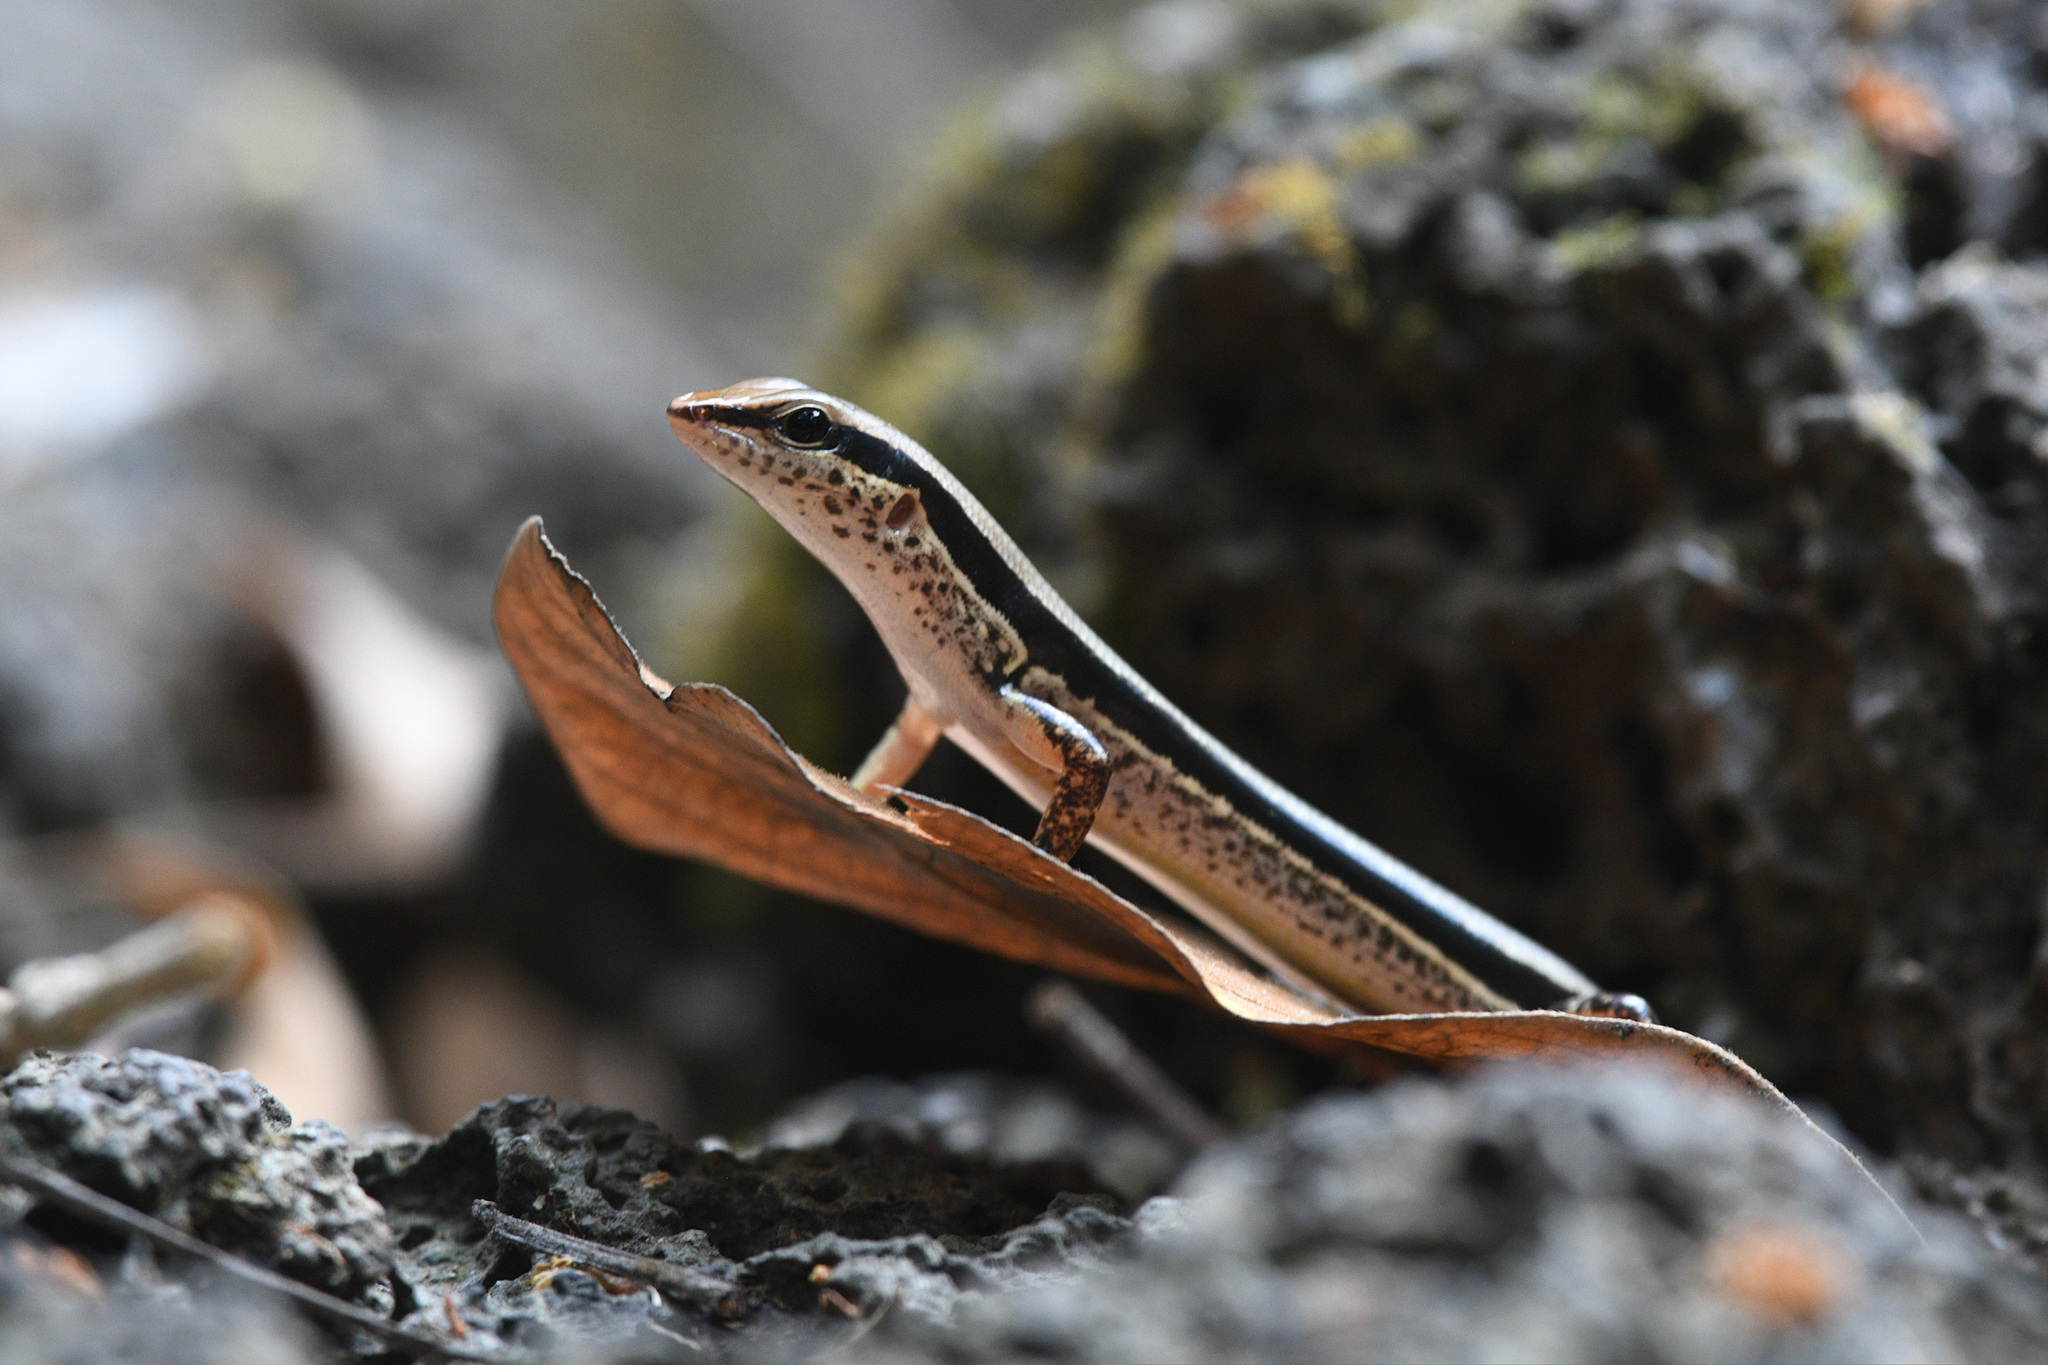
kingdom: Animalia
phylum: Chordata
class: Squamata
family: Scincidae
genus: Sphenomorphus
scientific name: Sphenomorphus maculatus
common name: Maculated forest skink
